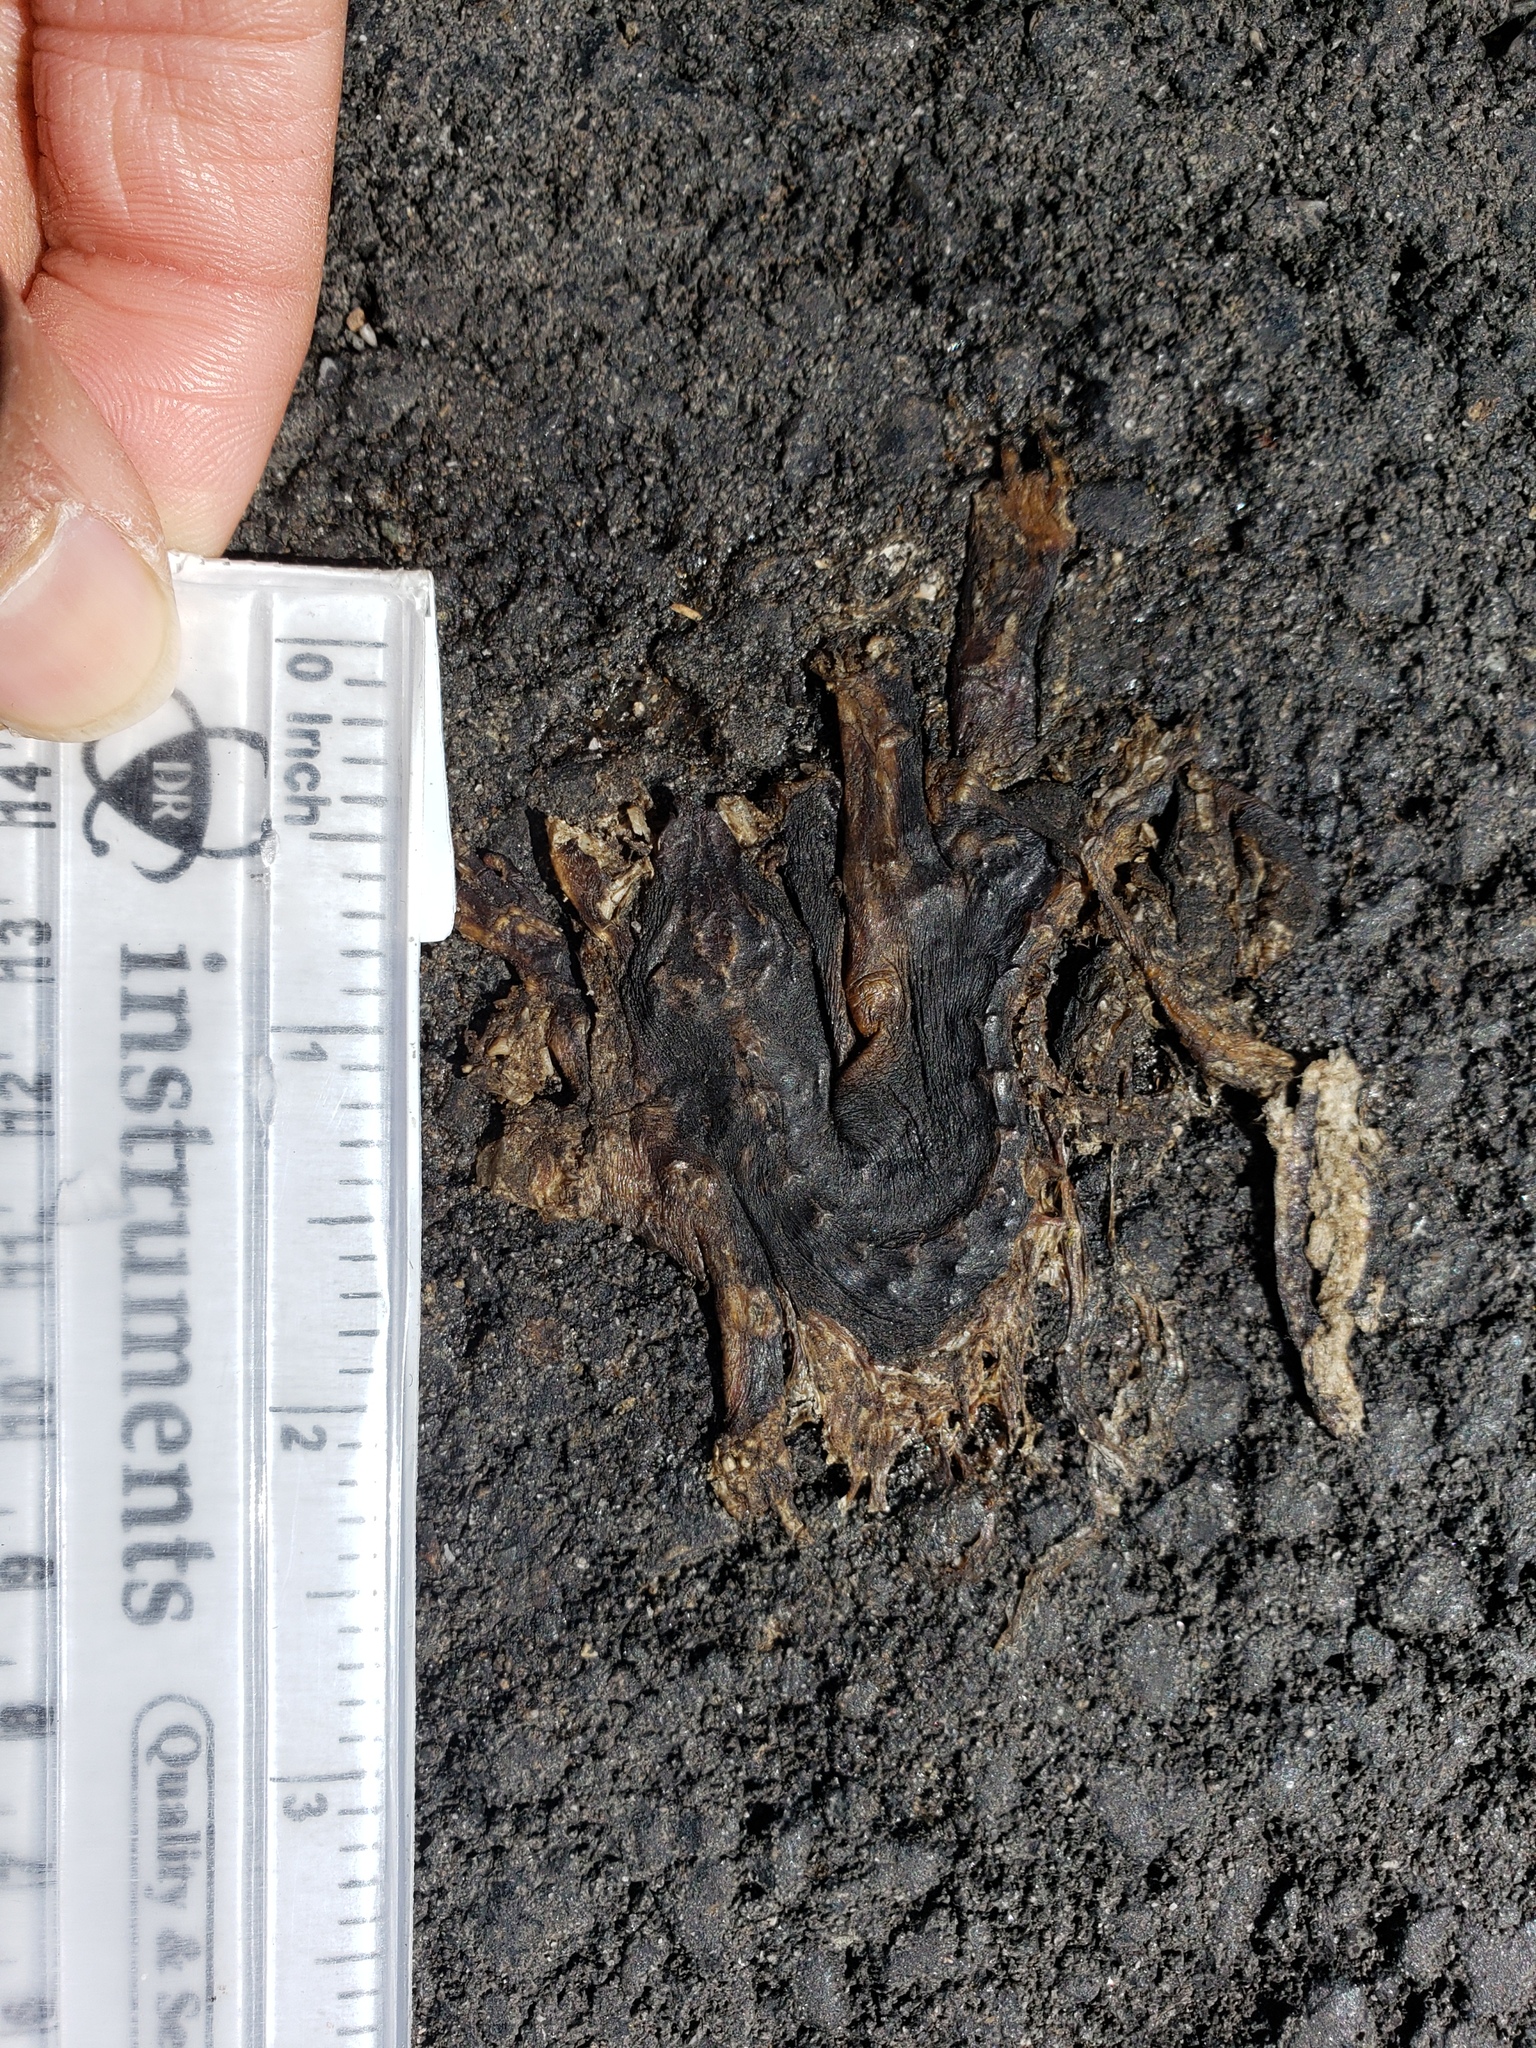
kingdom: Animalia
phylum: Chordata
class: Amphibia
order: Caudata
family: Salamandridae
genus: Taricha
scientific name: Taricha
